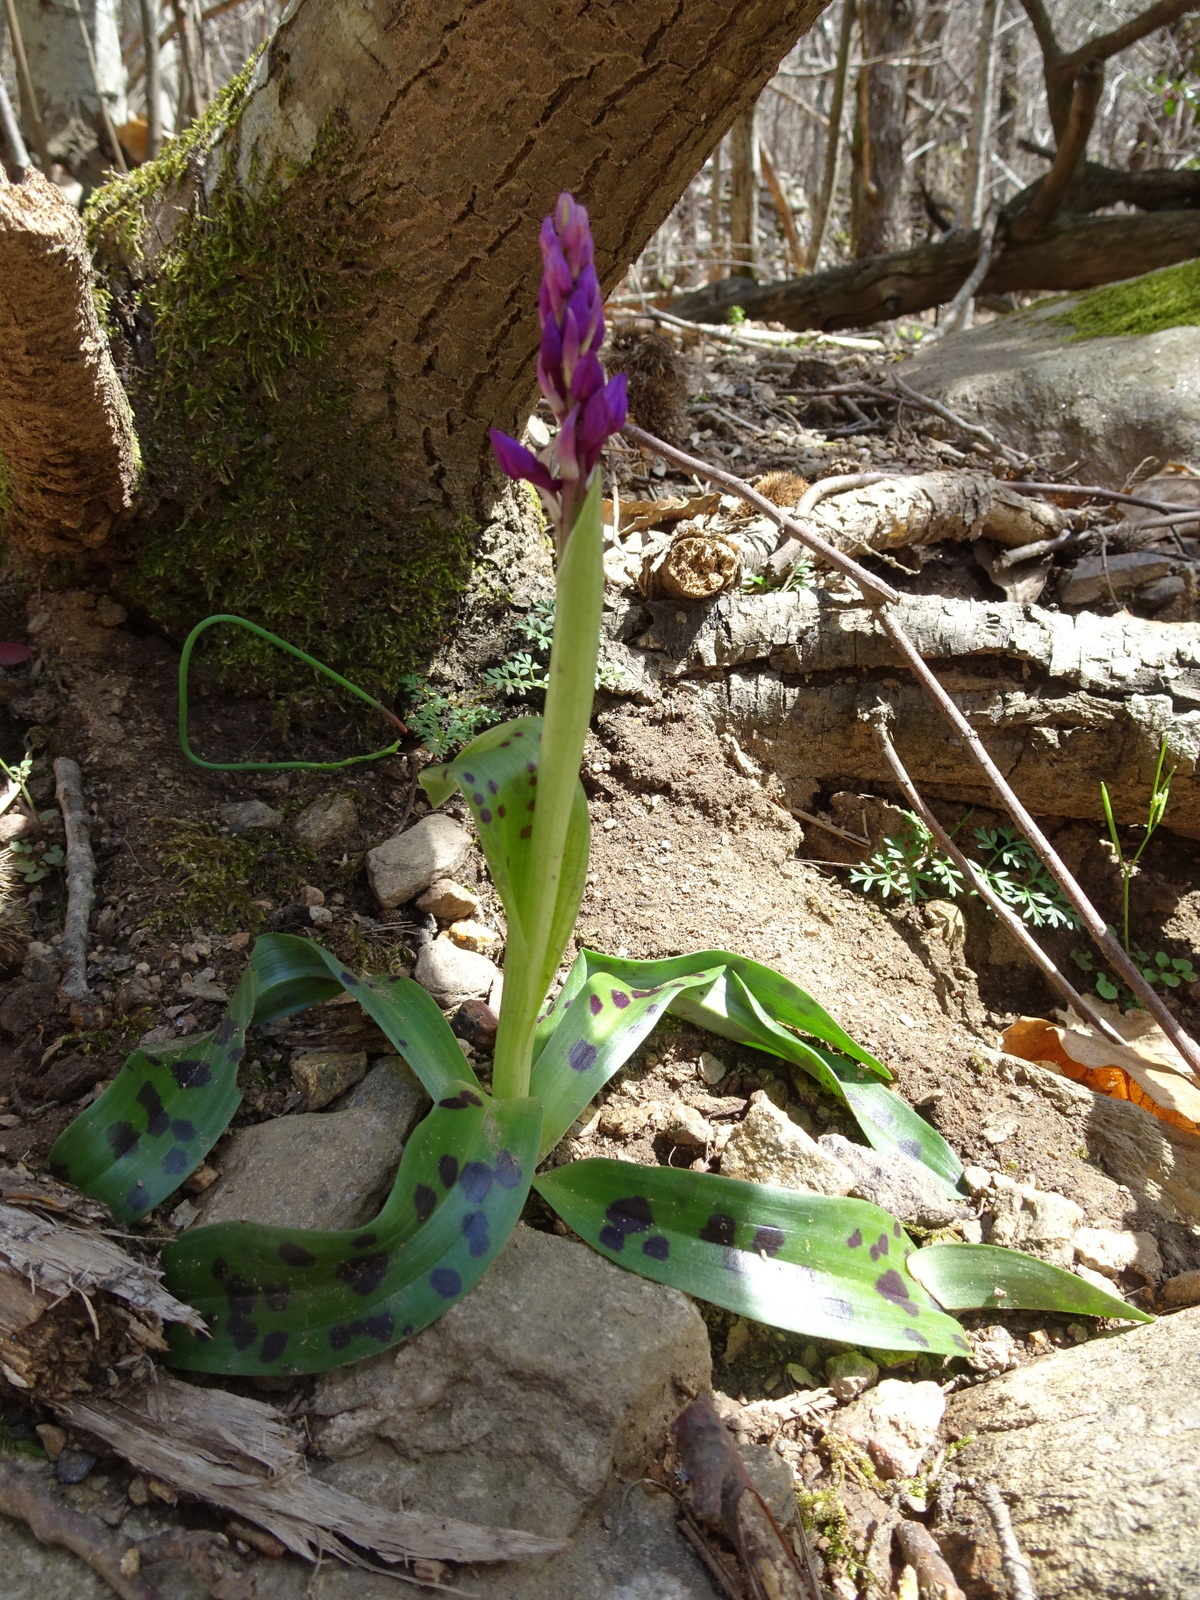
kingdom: Plantae
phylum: Tracheophyta
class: Liliopsida
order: Asparagales
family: Orchidaceae
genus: Orchis
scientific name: Orchis mascula
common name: Early-purple orchid
